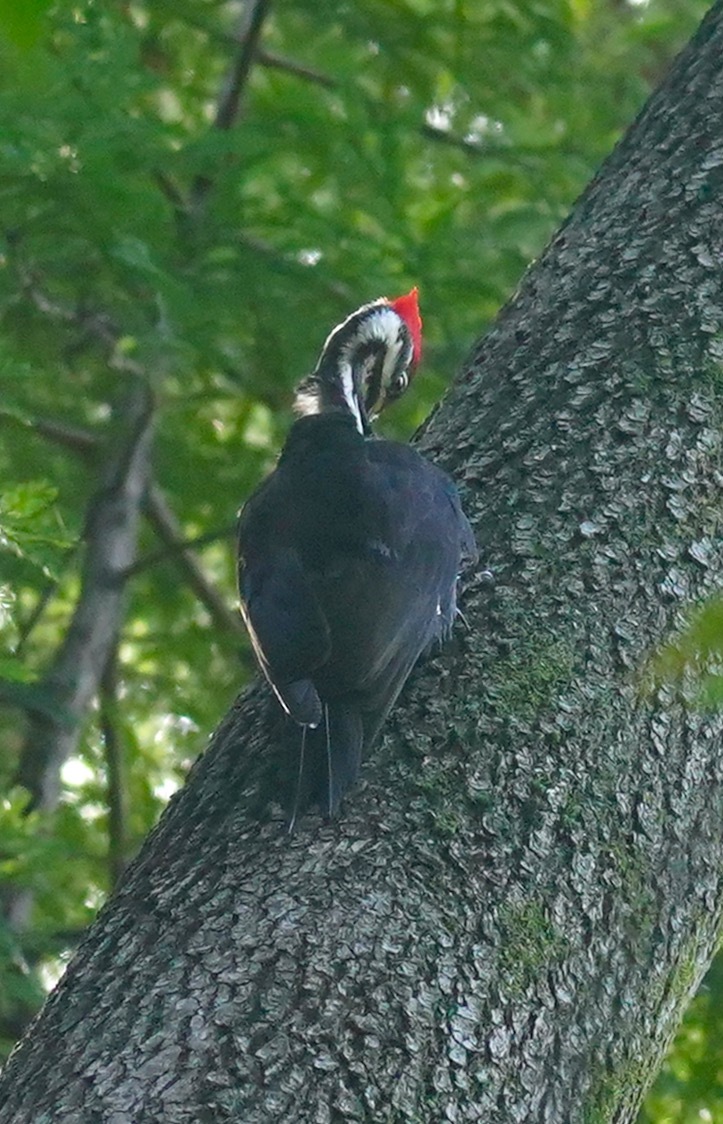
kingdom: Animalia
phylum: Chordata
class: Aves
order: Piciformes
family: Picidae
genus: Dryocopus
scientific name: Dryocopus pileatus
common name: Pileated woodpecker
